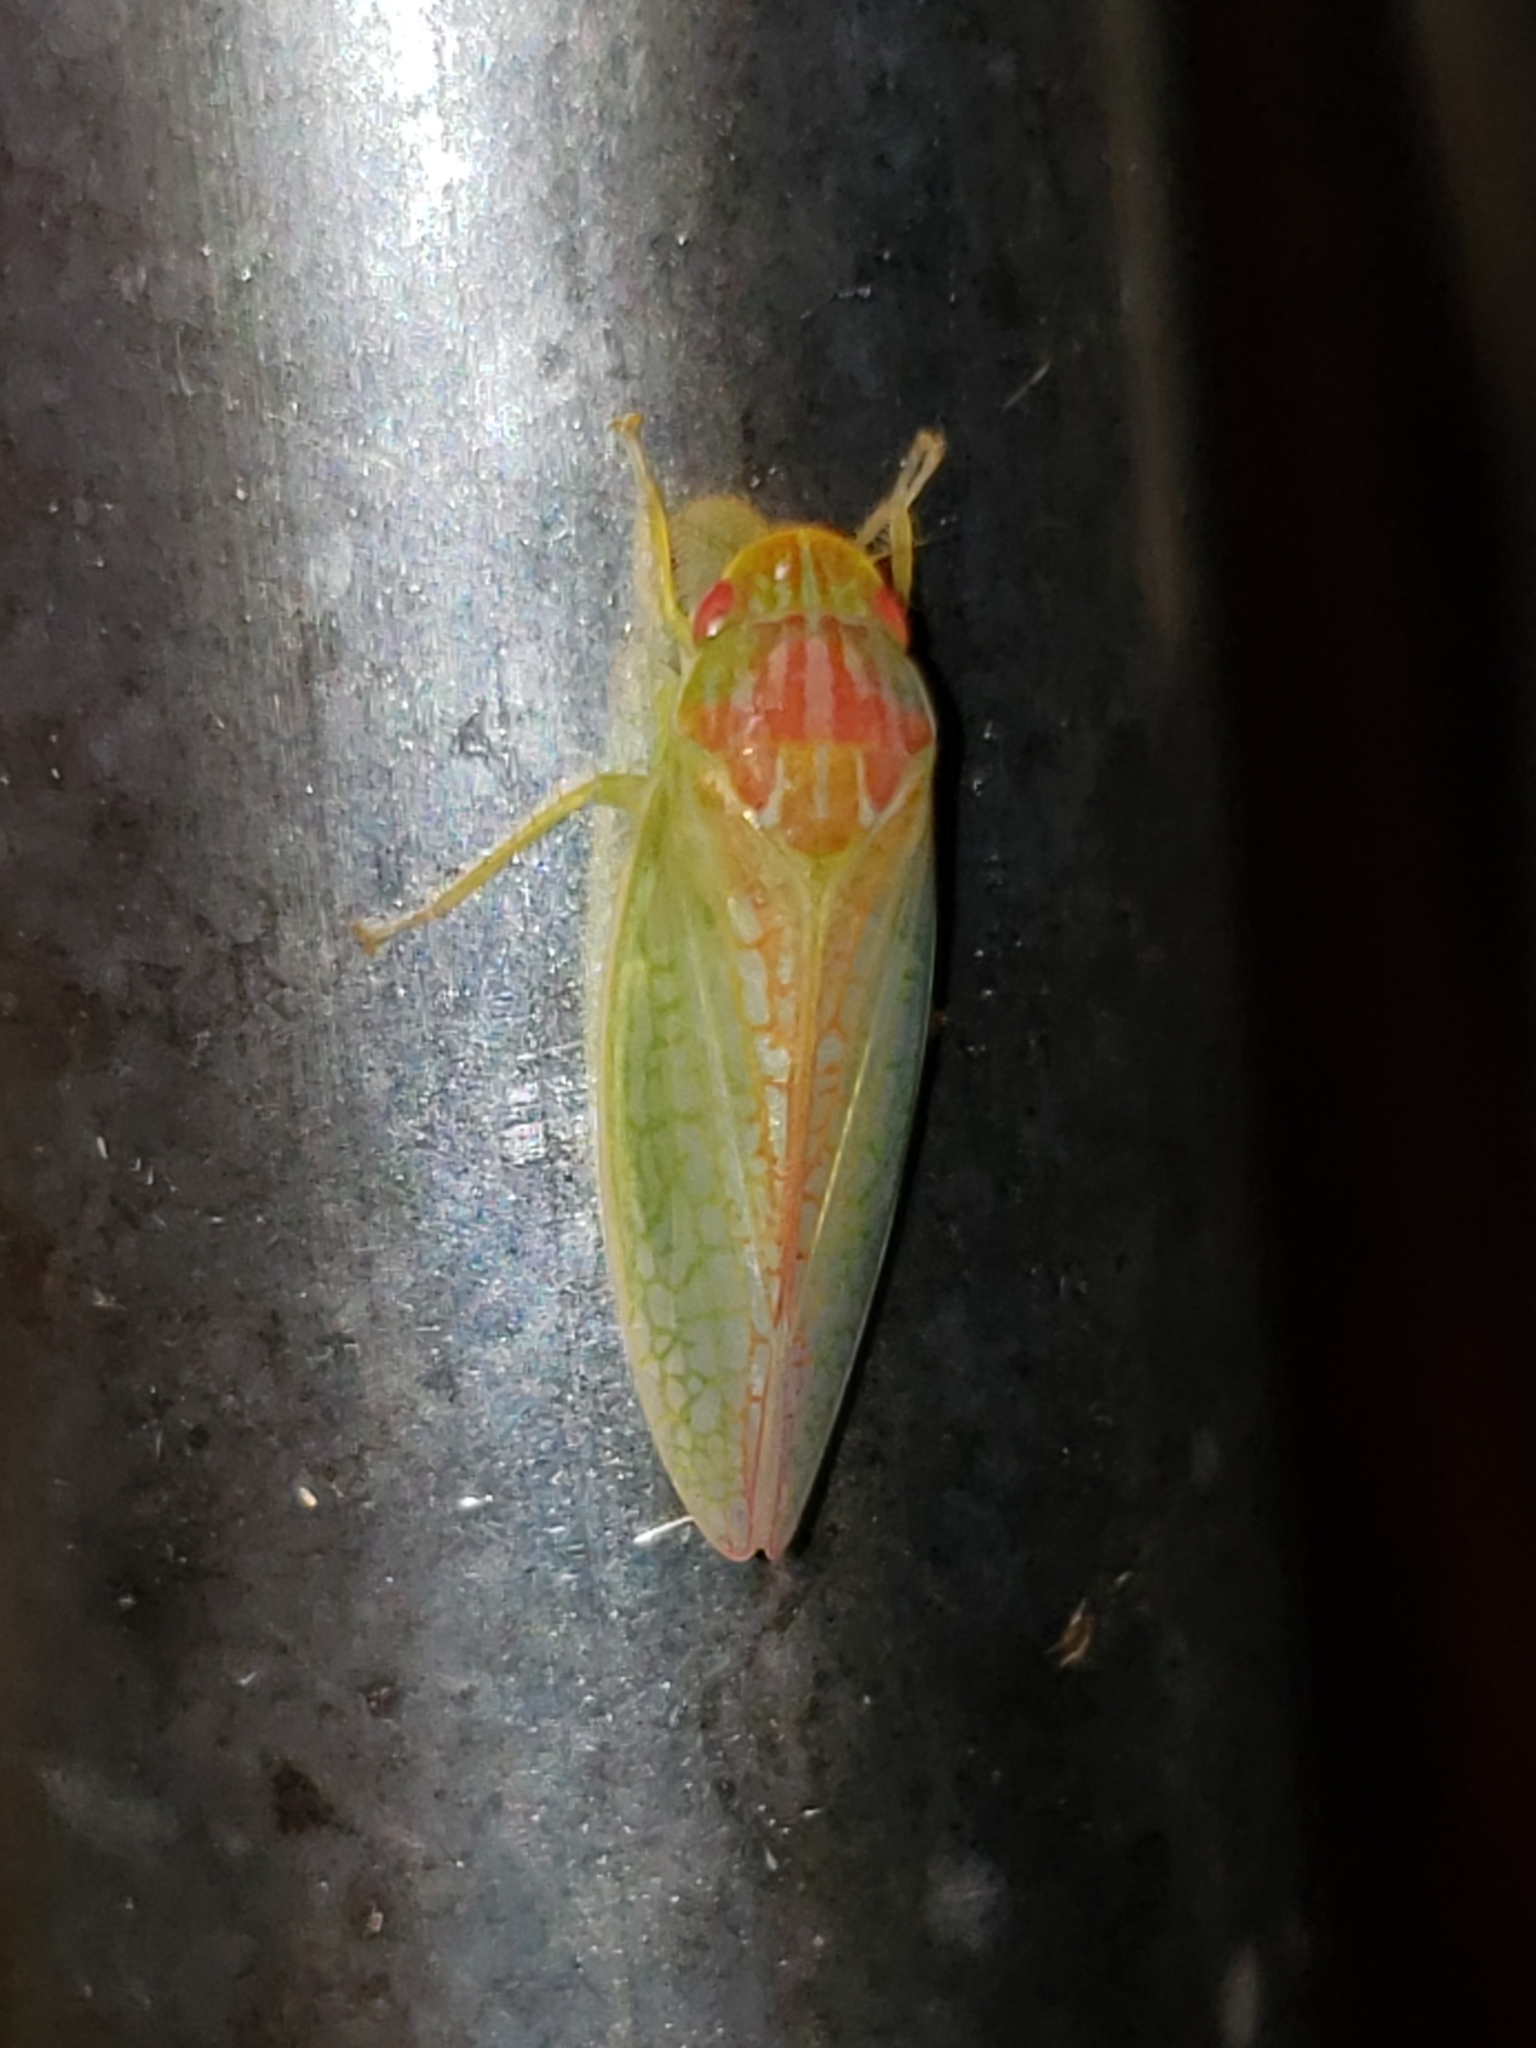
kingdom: Animalia
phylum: Arthropoda
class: Insecta
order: Hemiptera
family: Cicadellidae
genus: Gyponana
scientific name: Gyponana octolineata
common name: Eight-lined leafhopper
